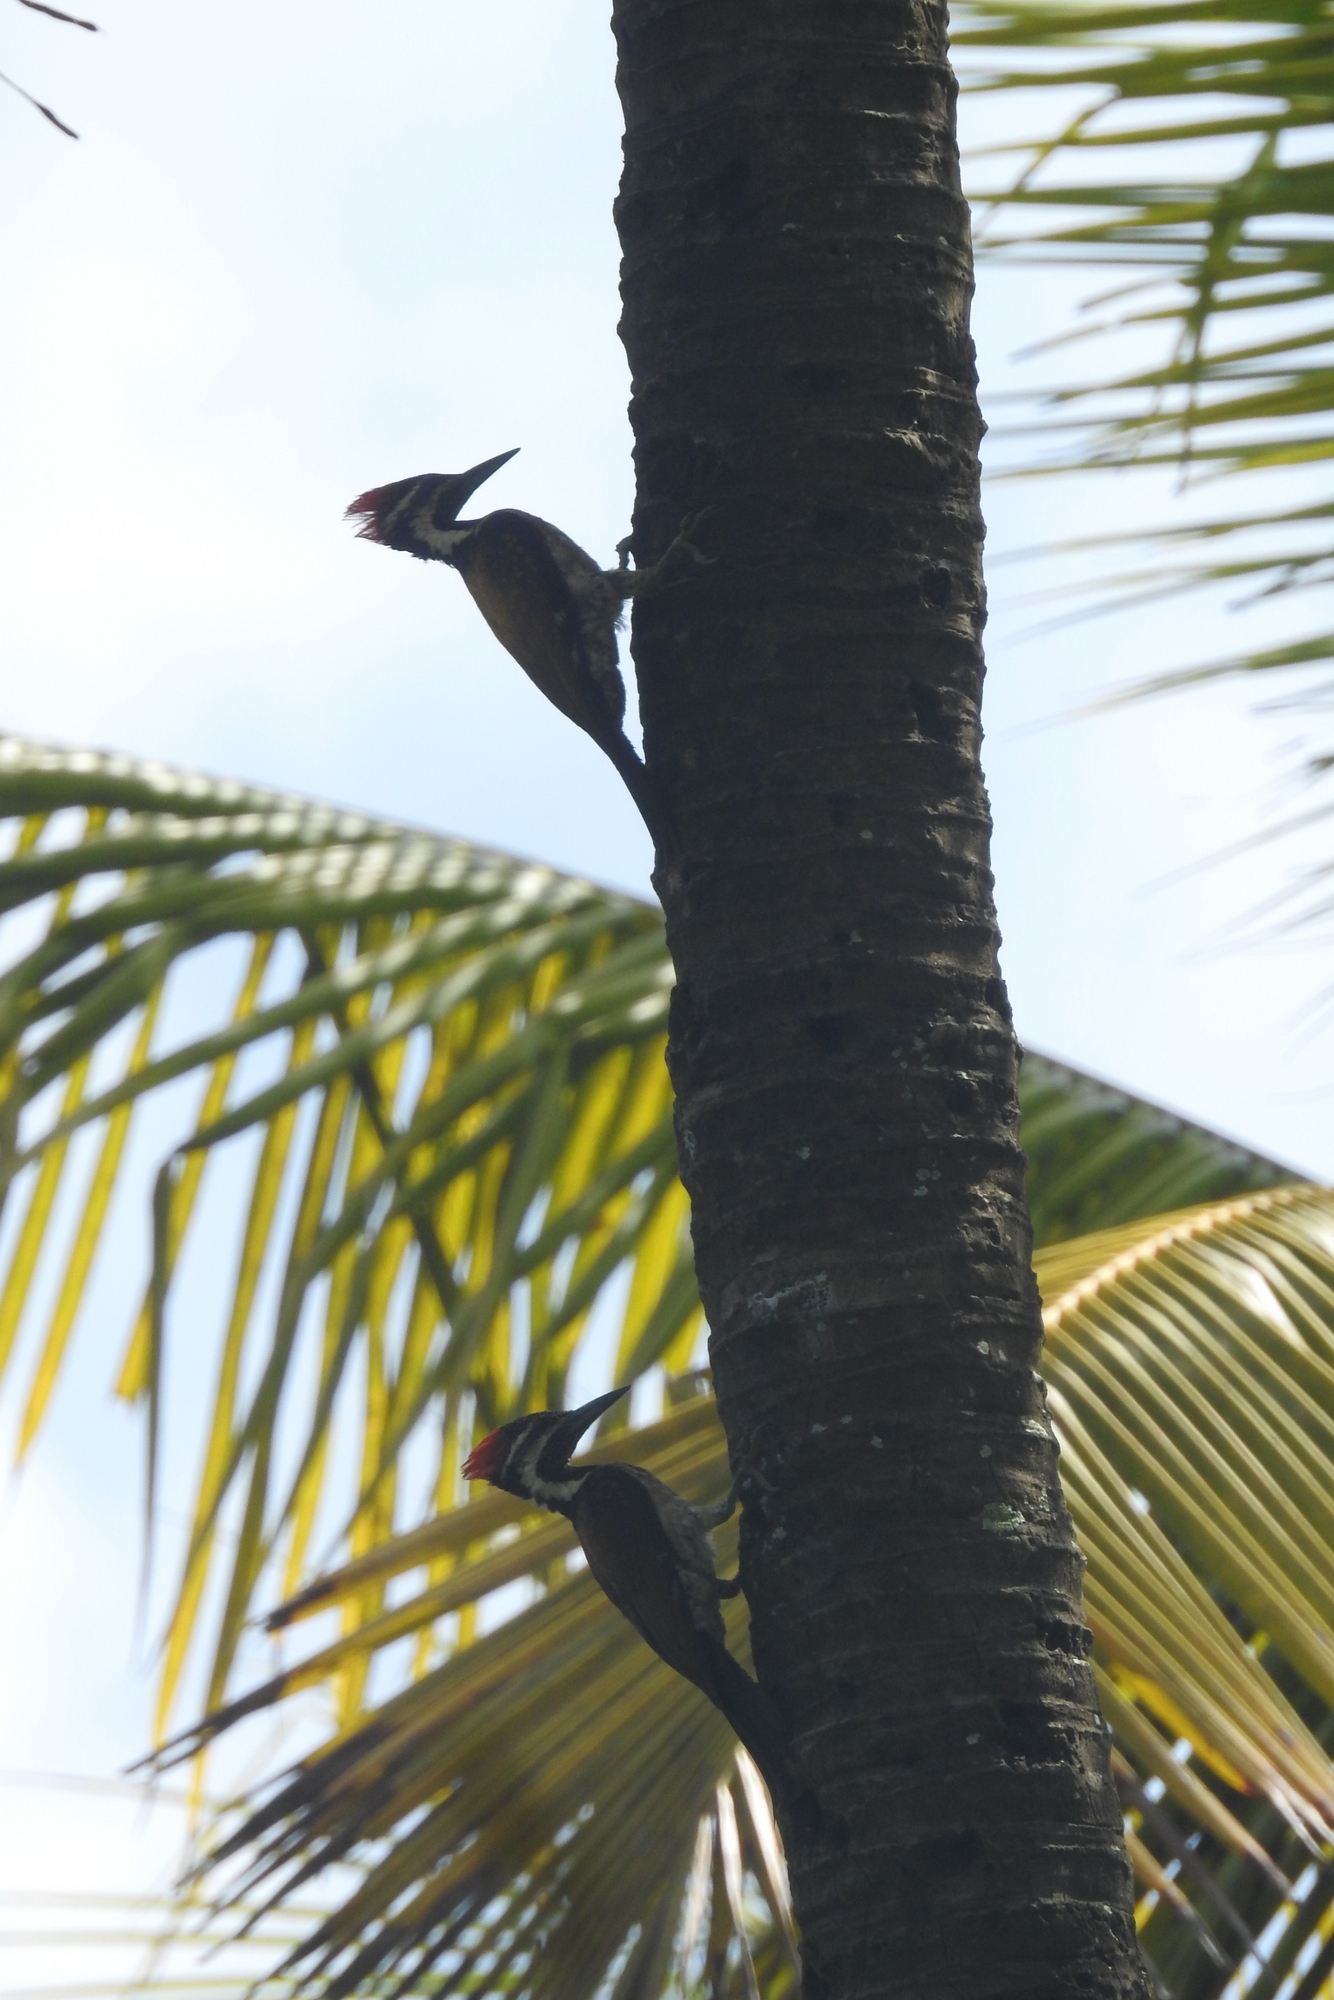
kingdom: Animalia
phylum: Chordata
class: Aves
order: Piciformes
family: Picidae
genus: Dinopium
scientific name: Dinopium benghalense
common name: Black-rumped flameback
